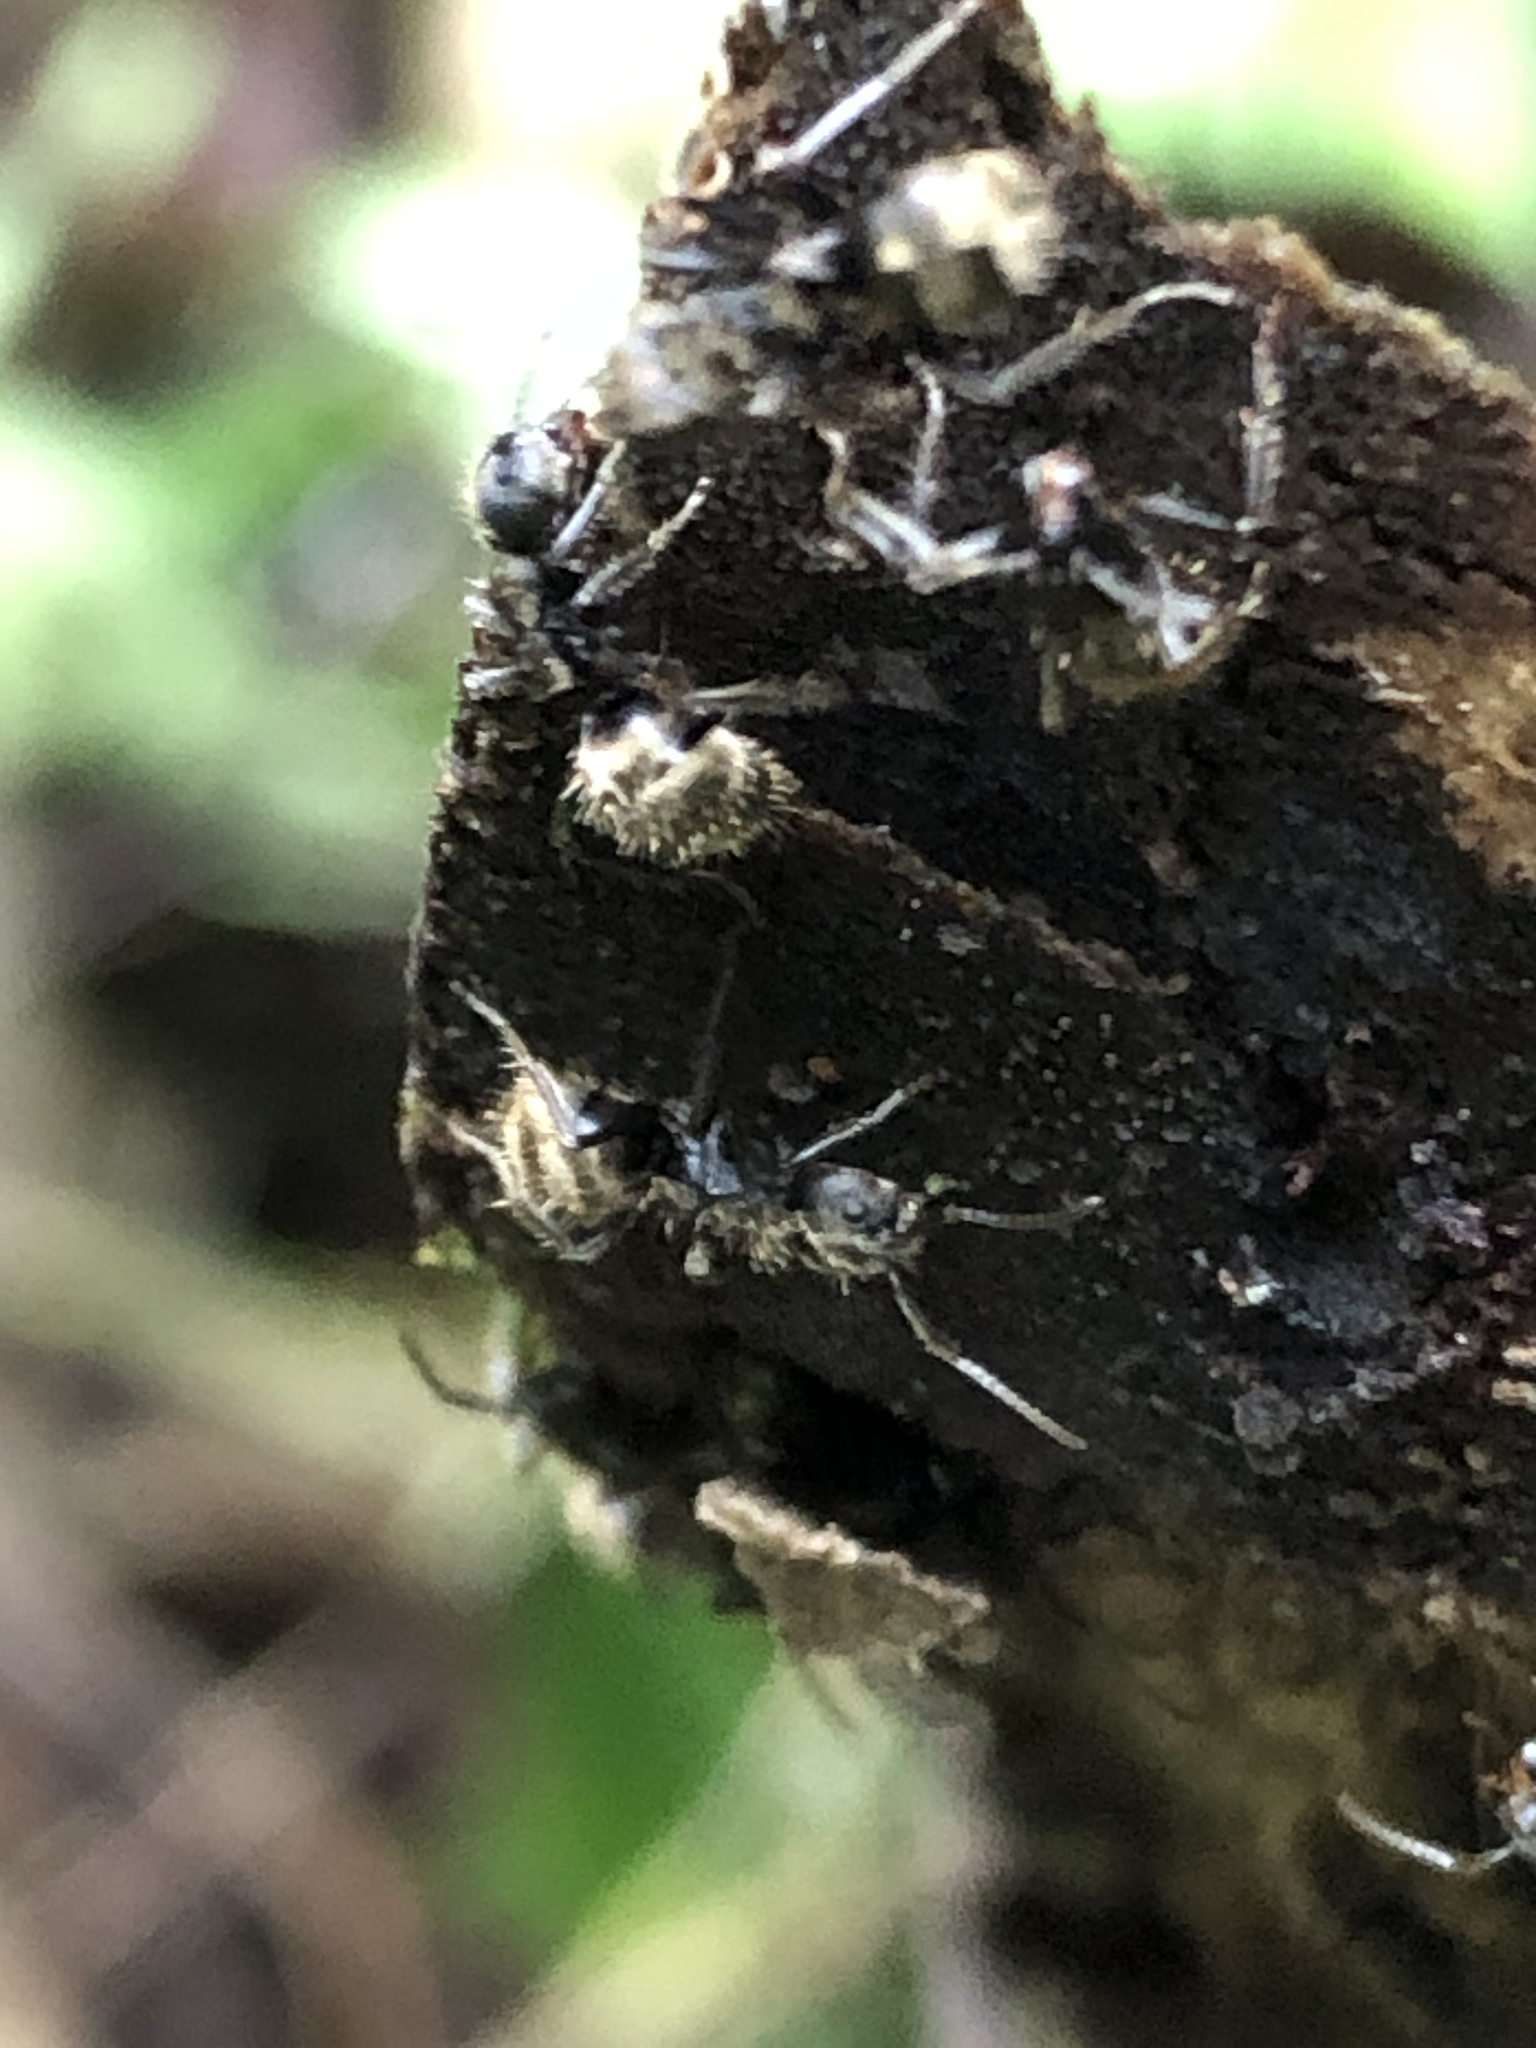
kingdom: Animalia
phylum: Arthropoda
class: Insecta
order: Hymenoptera
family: Formicidae
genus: Dolichoderus
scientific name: Dolichoderus bispinosus
